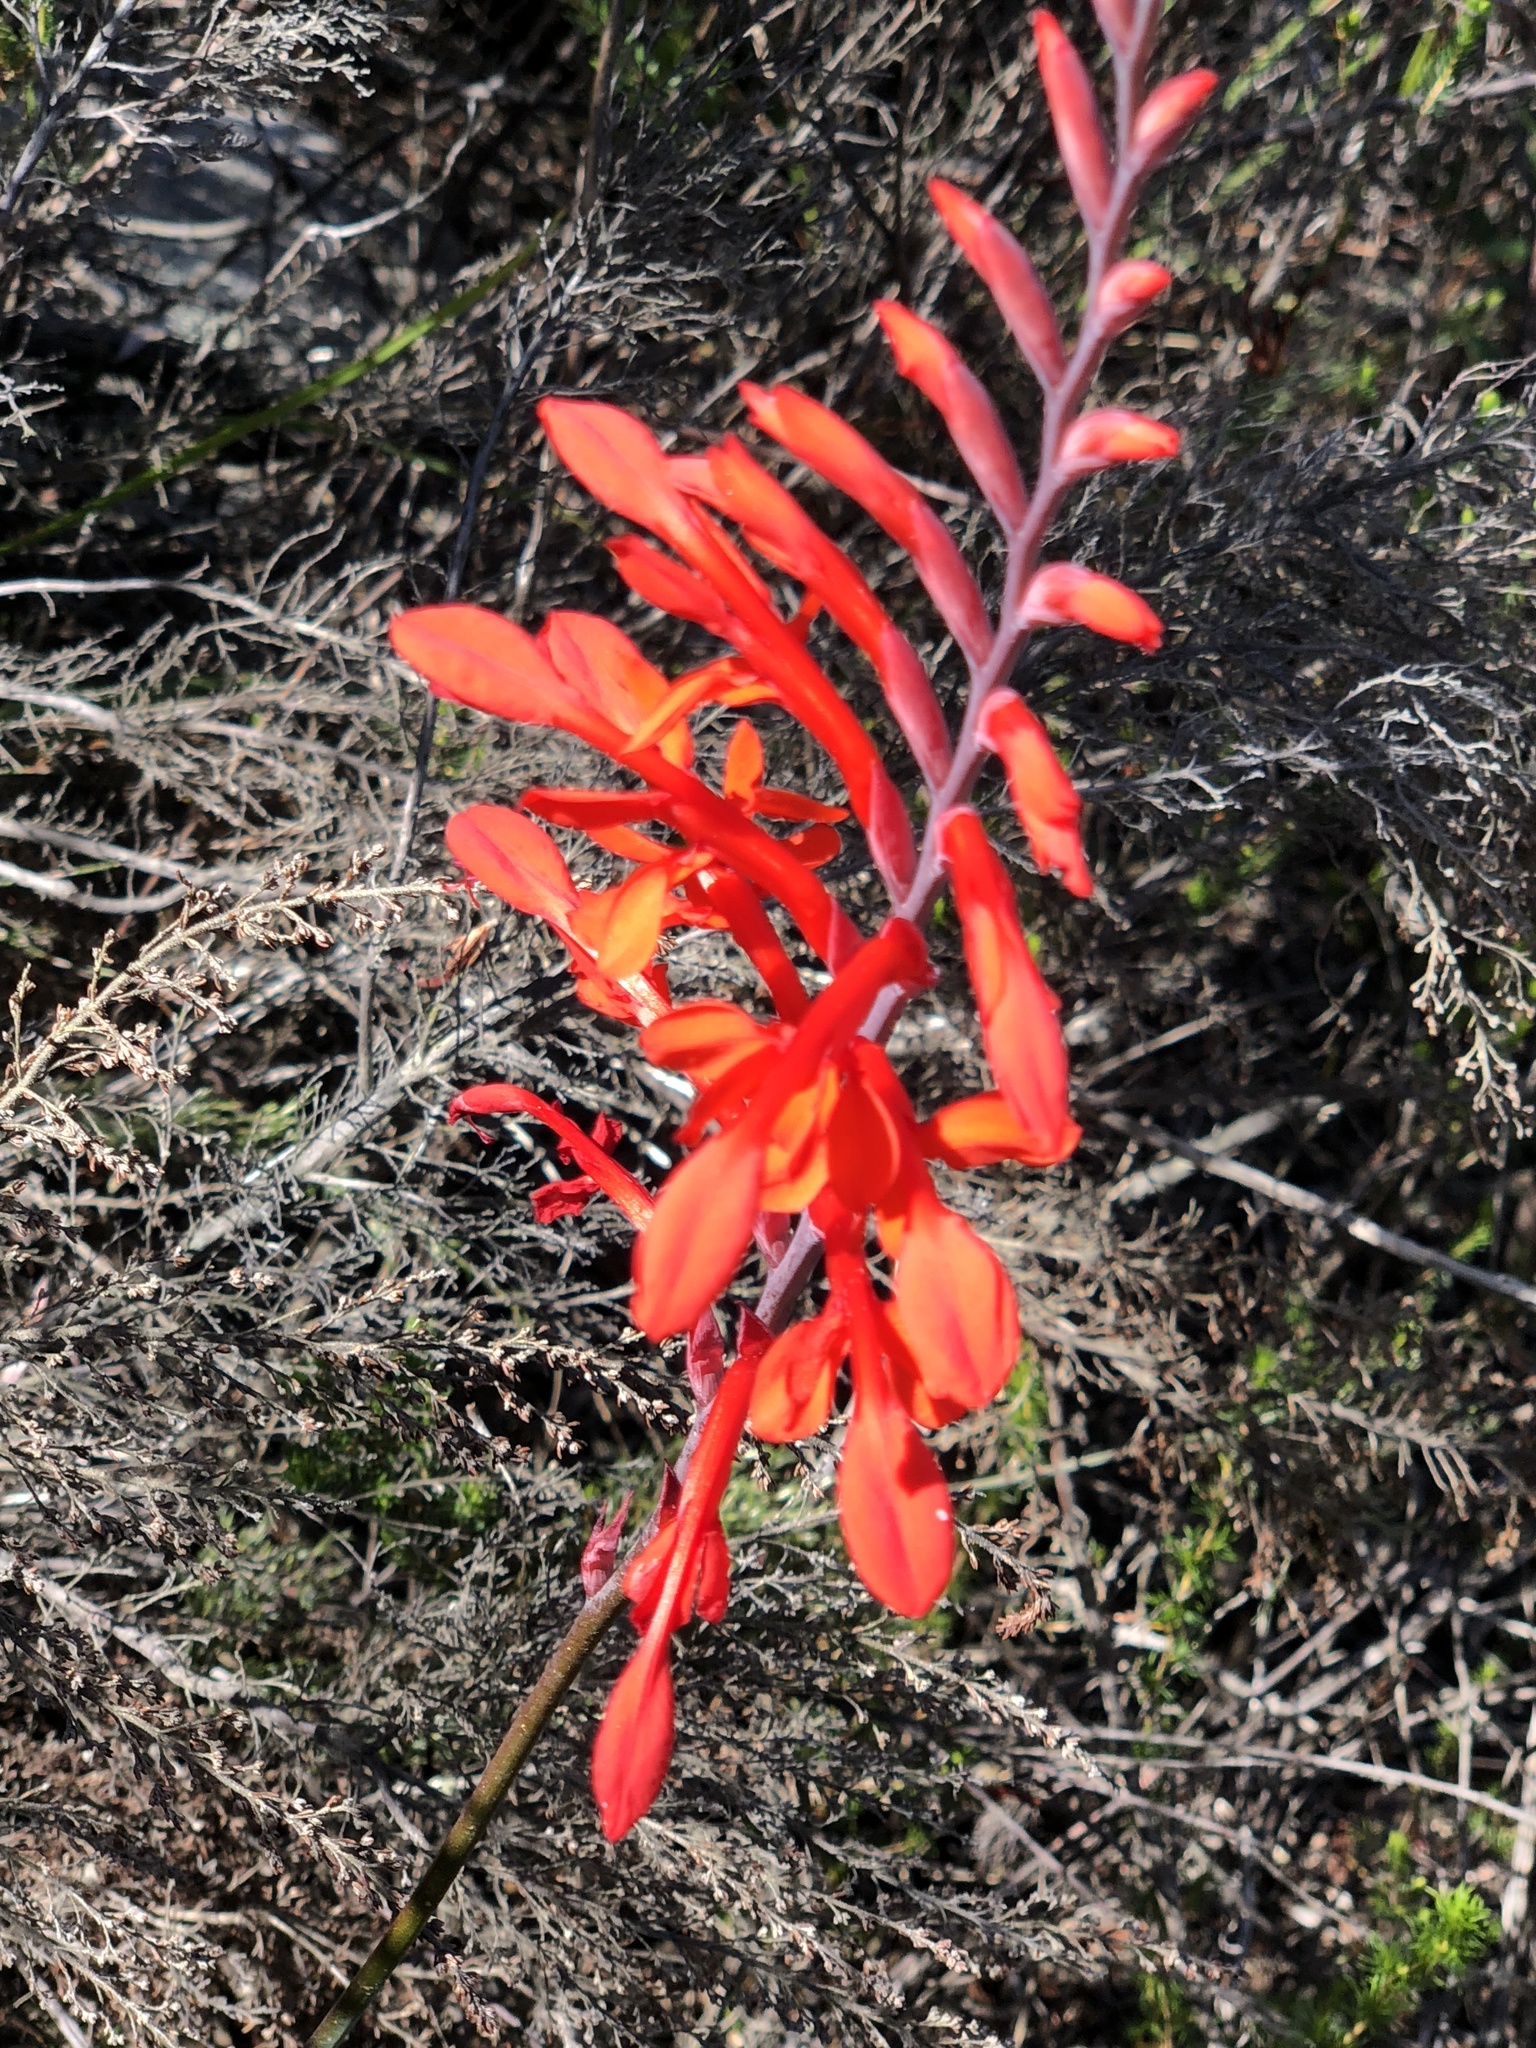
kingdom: Plantae
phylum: Tracheophyta
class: Liliopsida
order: Asparagales
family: Iridaceae
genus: Tritoniopsis
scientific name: Tritoniopsis caffra
